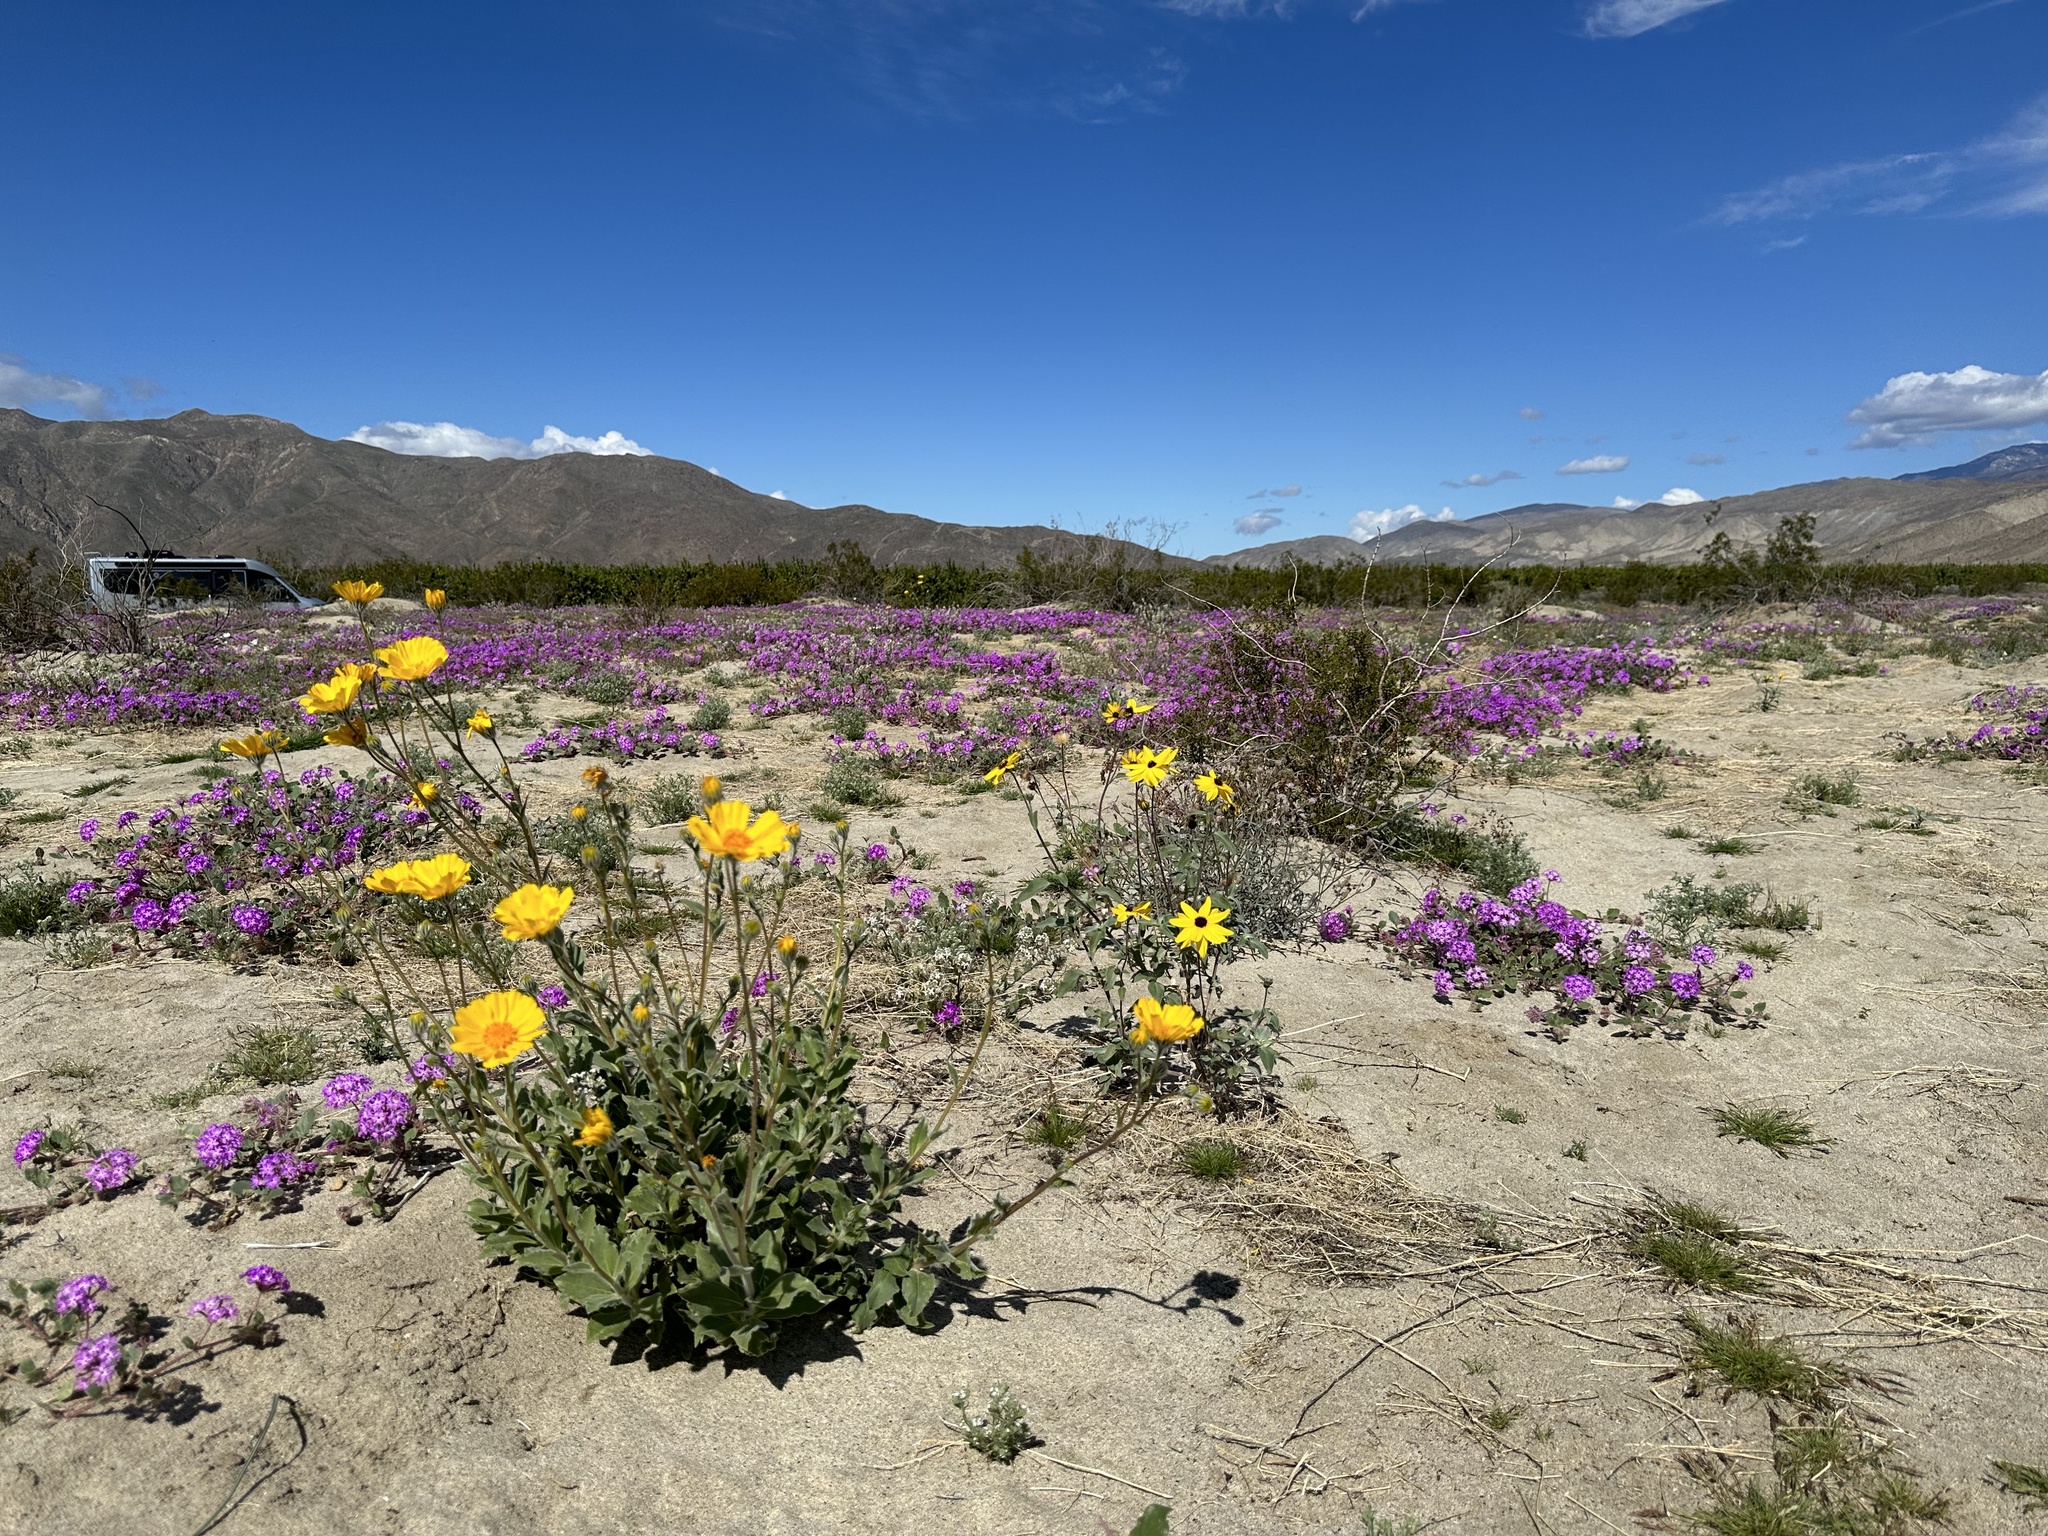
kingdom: Plantae
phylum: Tracheophyta
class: Magnoliopsida
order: Asterales
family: Asteraceae
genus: Geraea
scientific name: Geraea canescens
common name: Desert-gold
